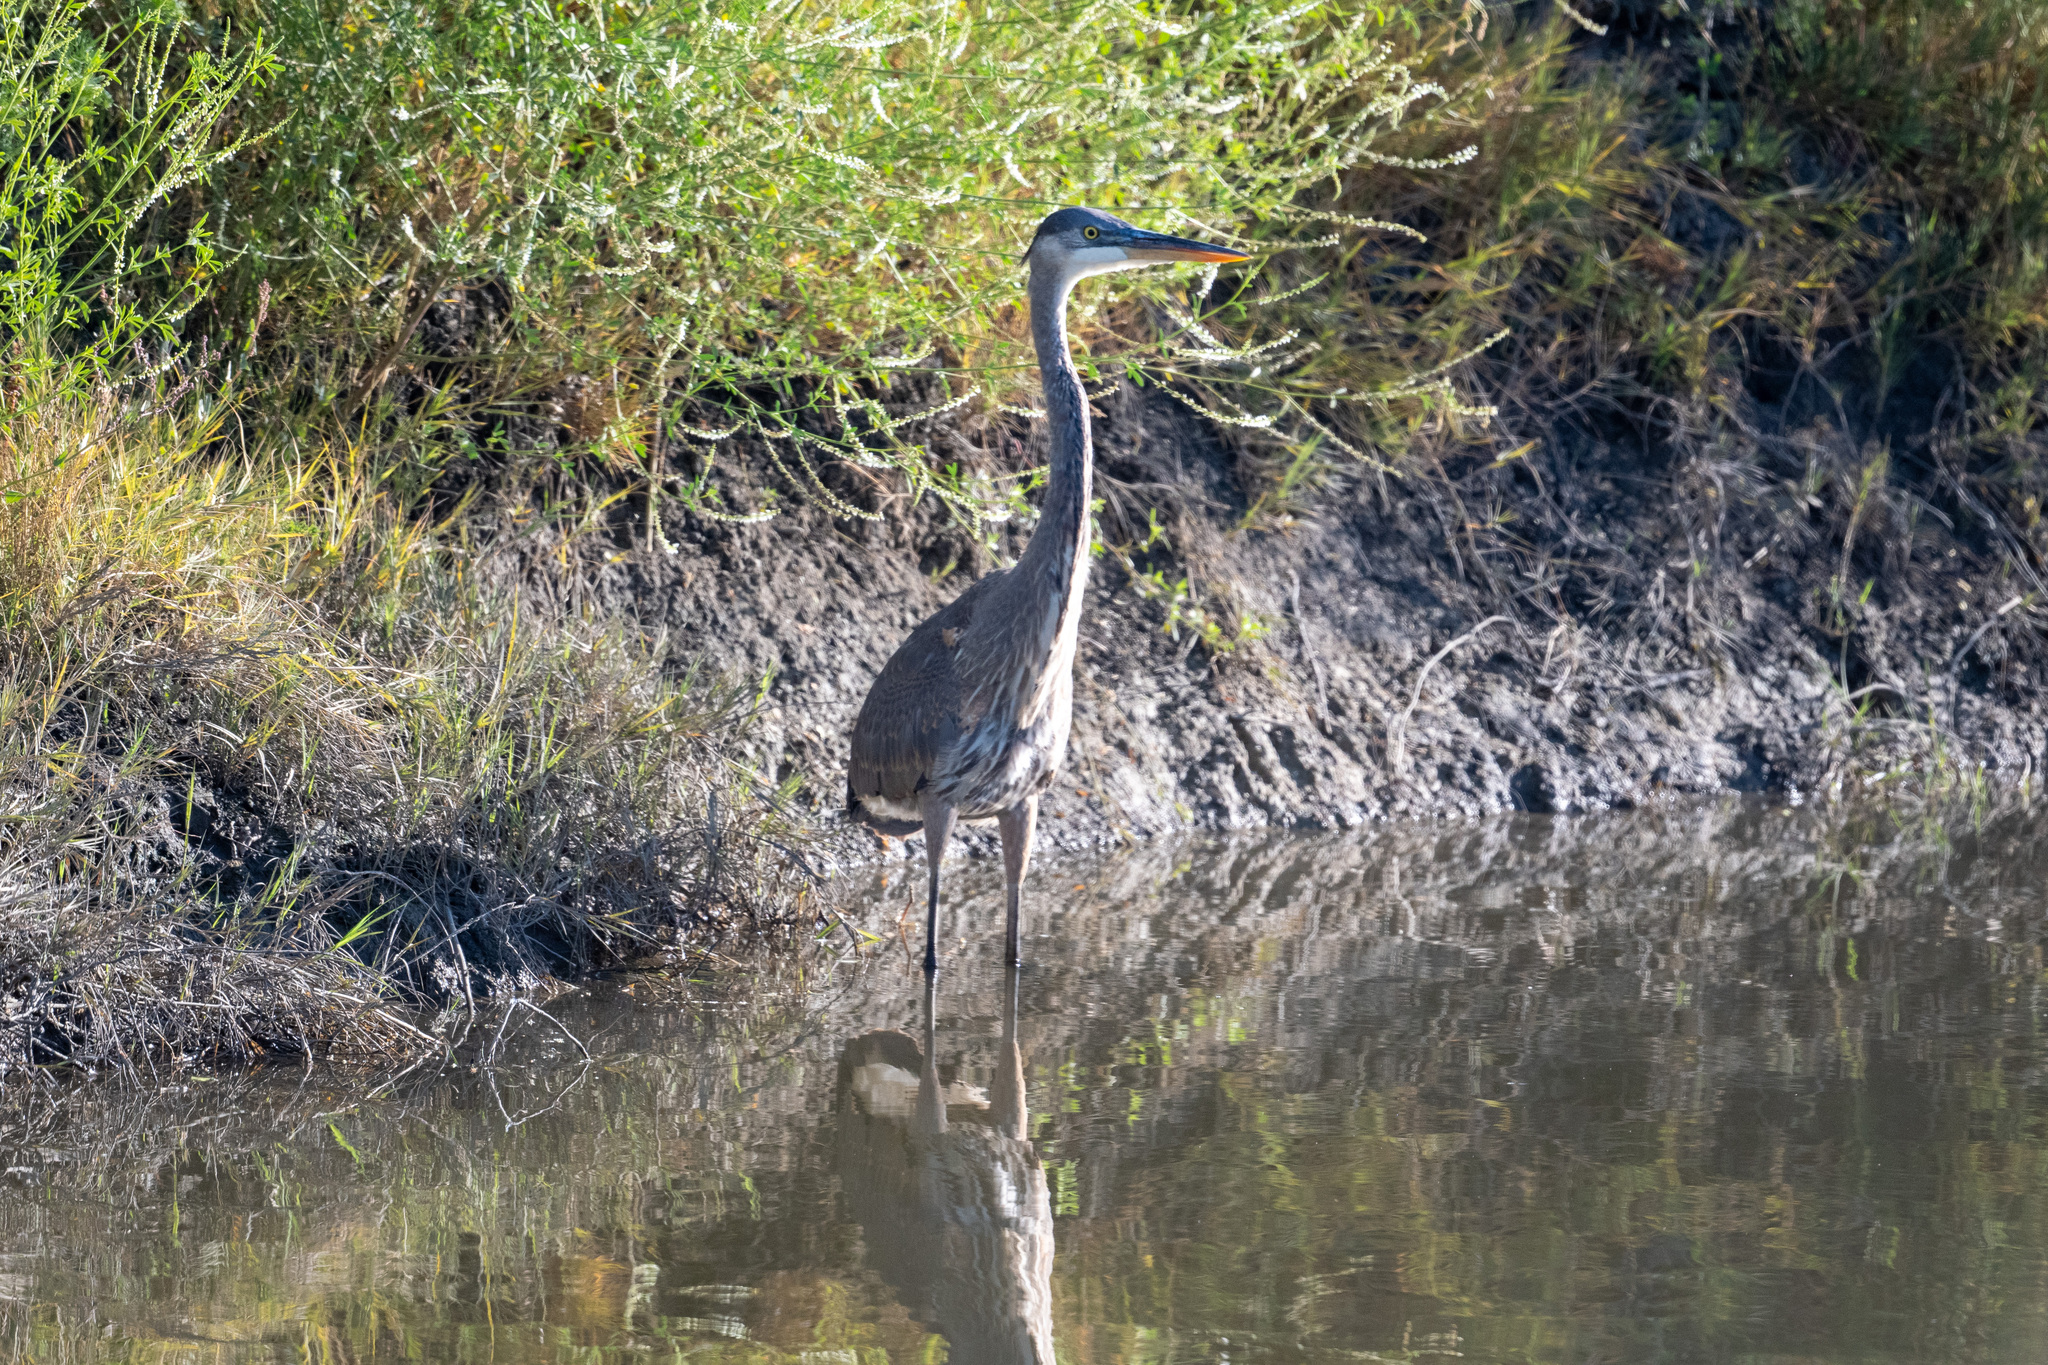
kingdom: Animalia
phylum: Chordata
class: Aves
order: Pelecaniformes
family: Ardeidae
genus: Ardea
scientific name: Ardea herodias
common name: Great blue heron
